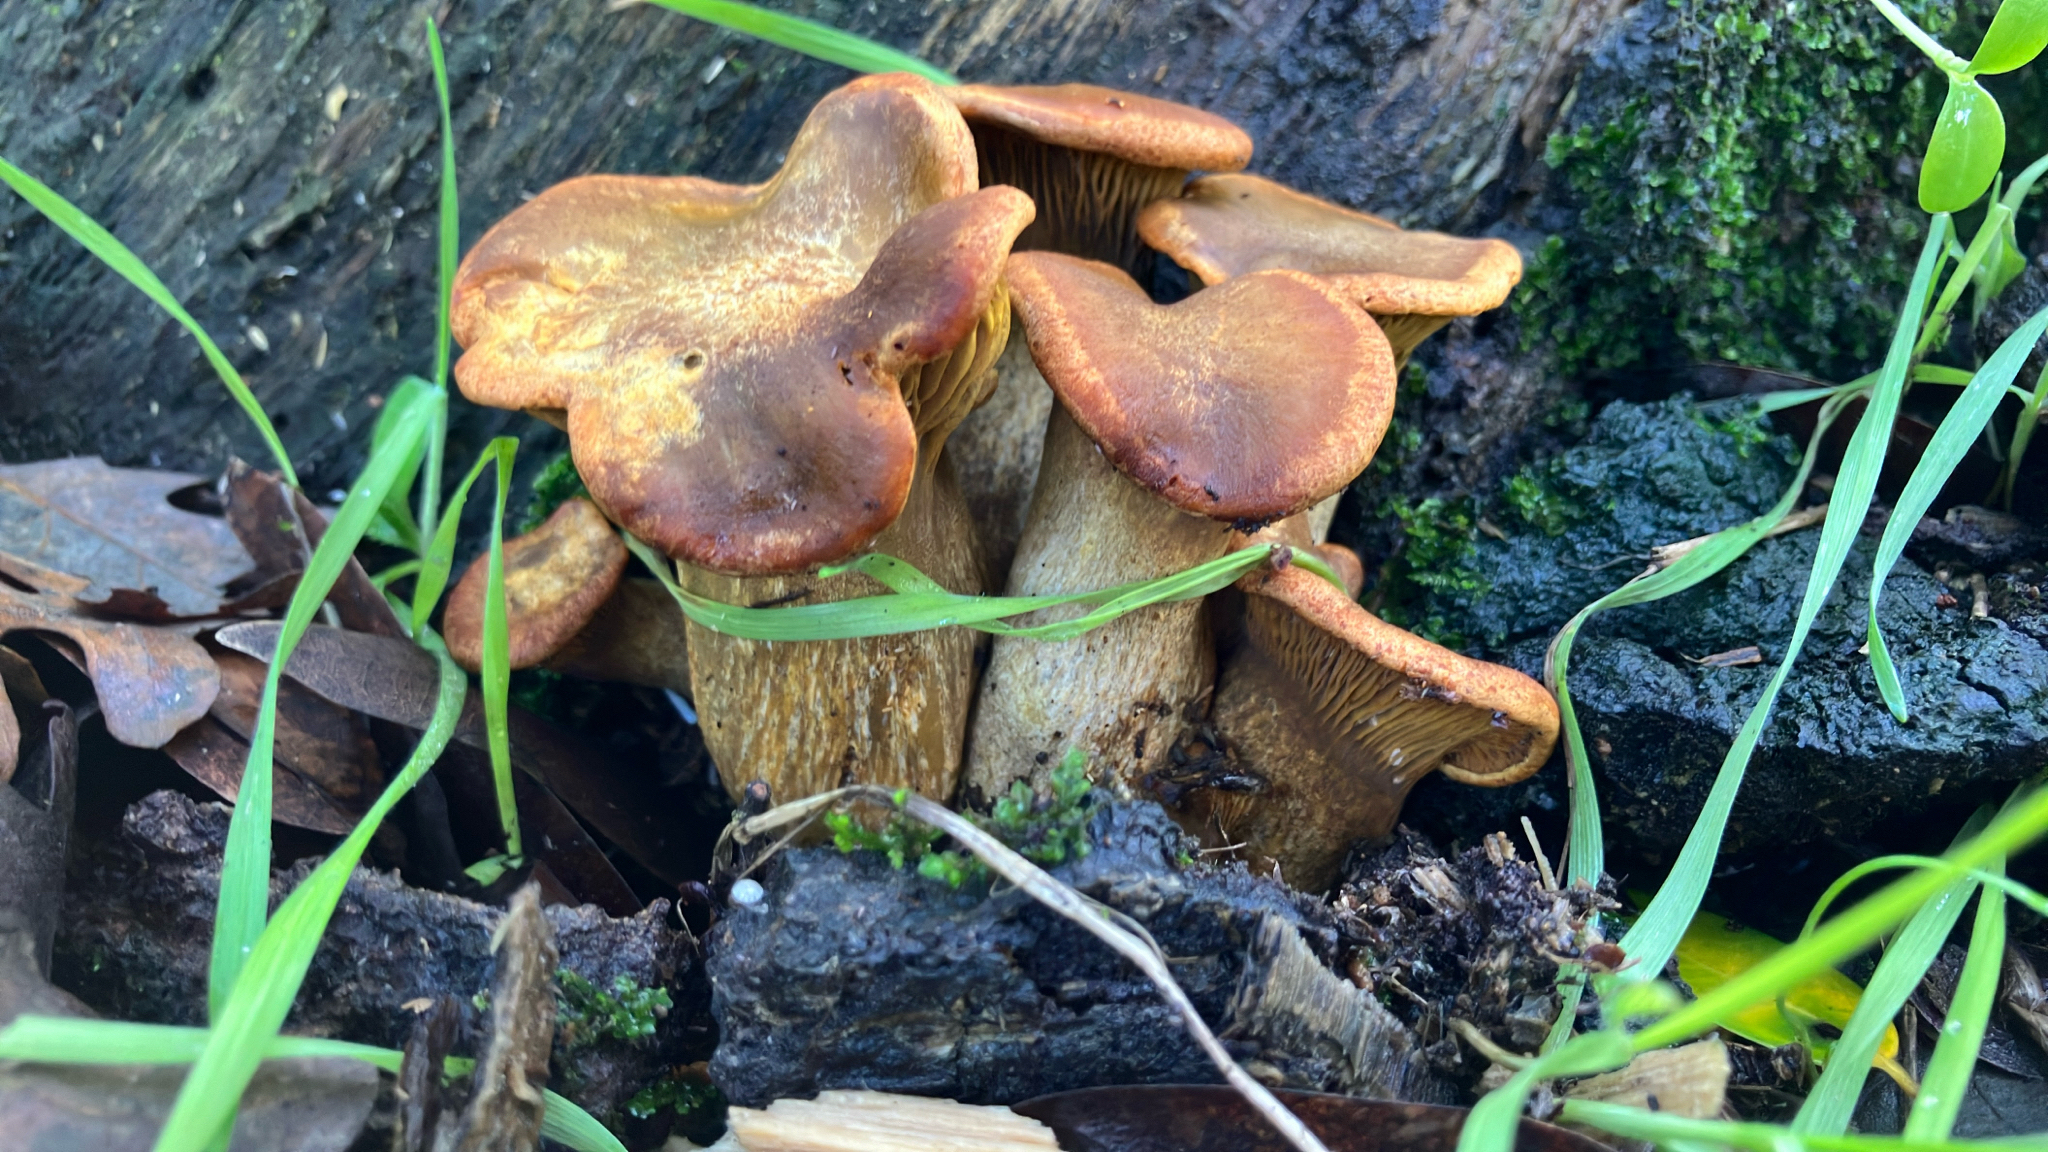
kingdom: Fungi
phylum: Basidiomycota
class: Agaricomycetes
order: Agaricales
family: Omphalotaceae
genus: Omphalotus
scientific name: Omphalotus olivascens
